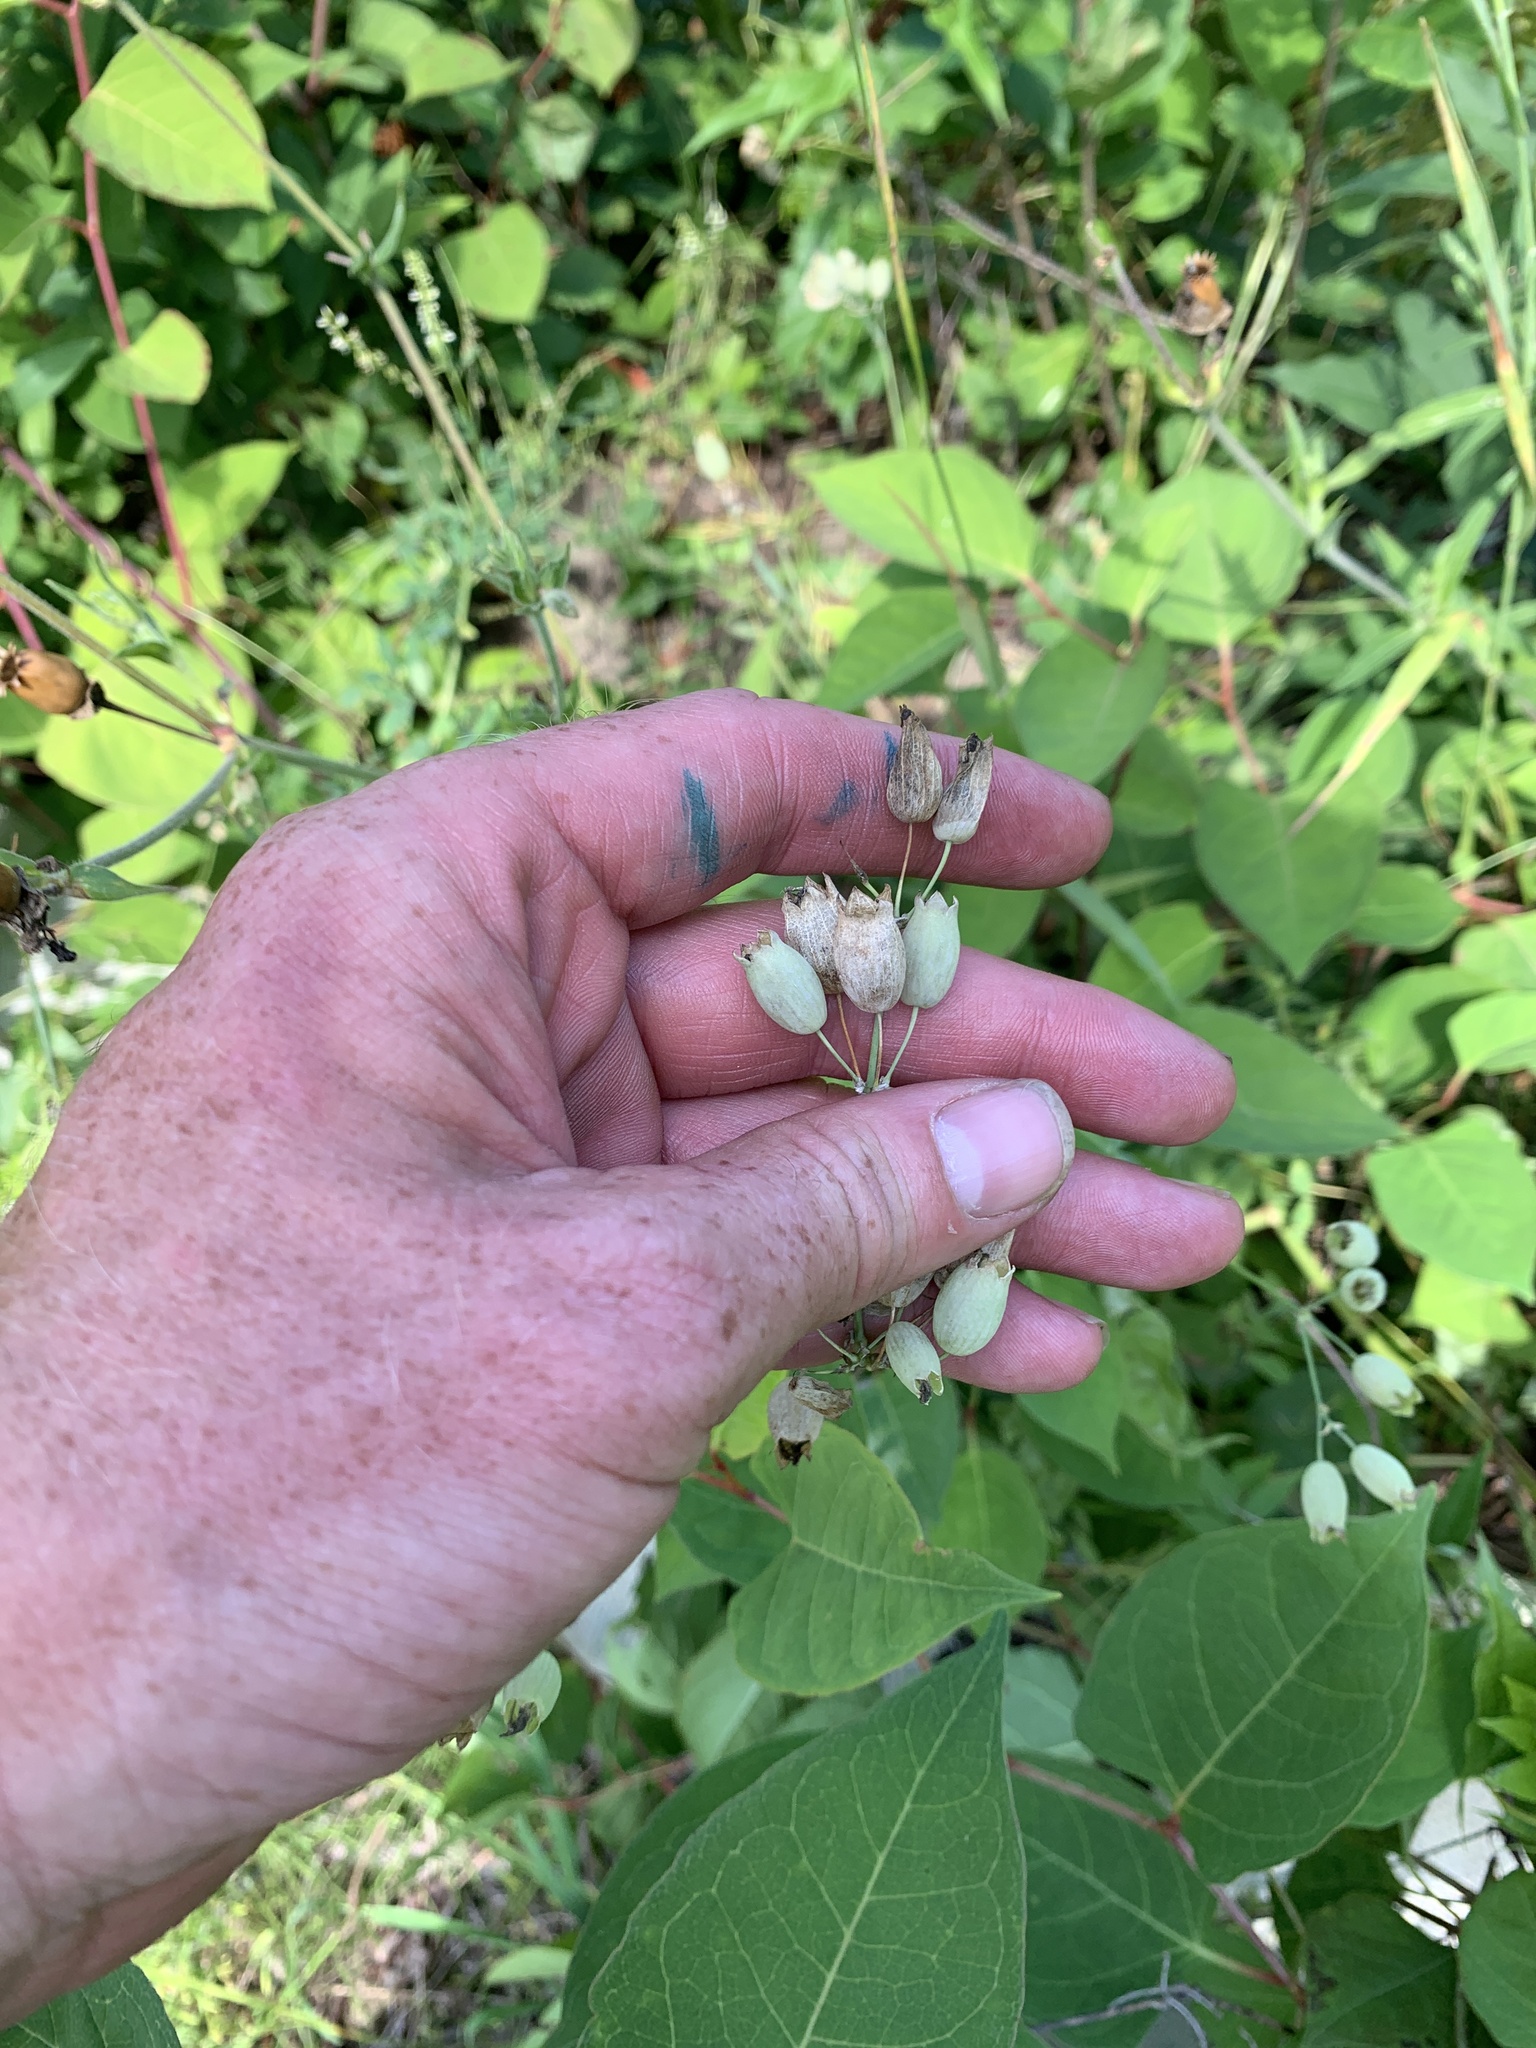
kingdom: Plantae
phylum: Tracheophyta
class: Magnoliopsida
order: Caryophyllales
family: Caryophyllaceae
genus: Silene
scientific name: Silene vulgaris
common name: Bladder campion
